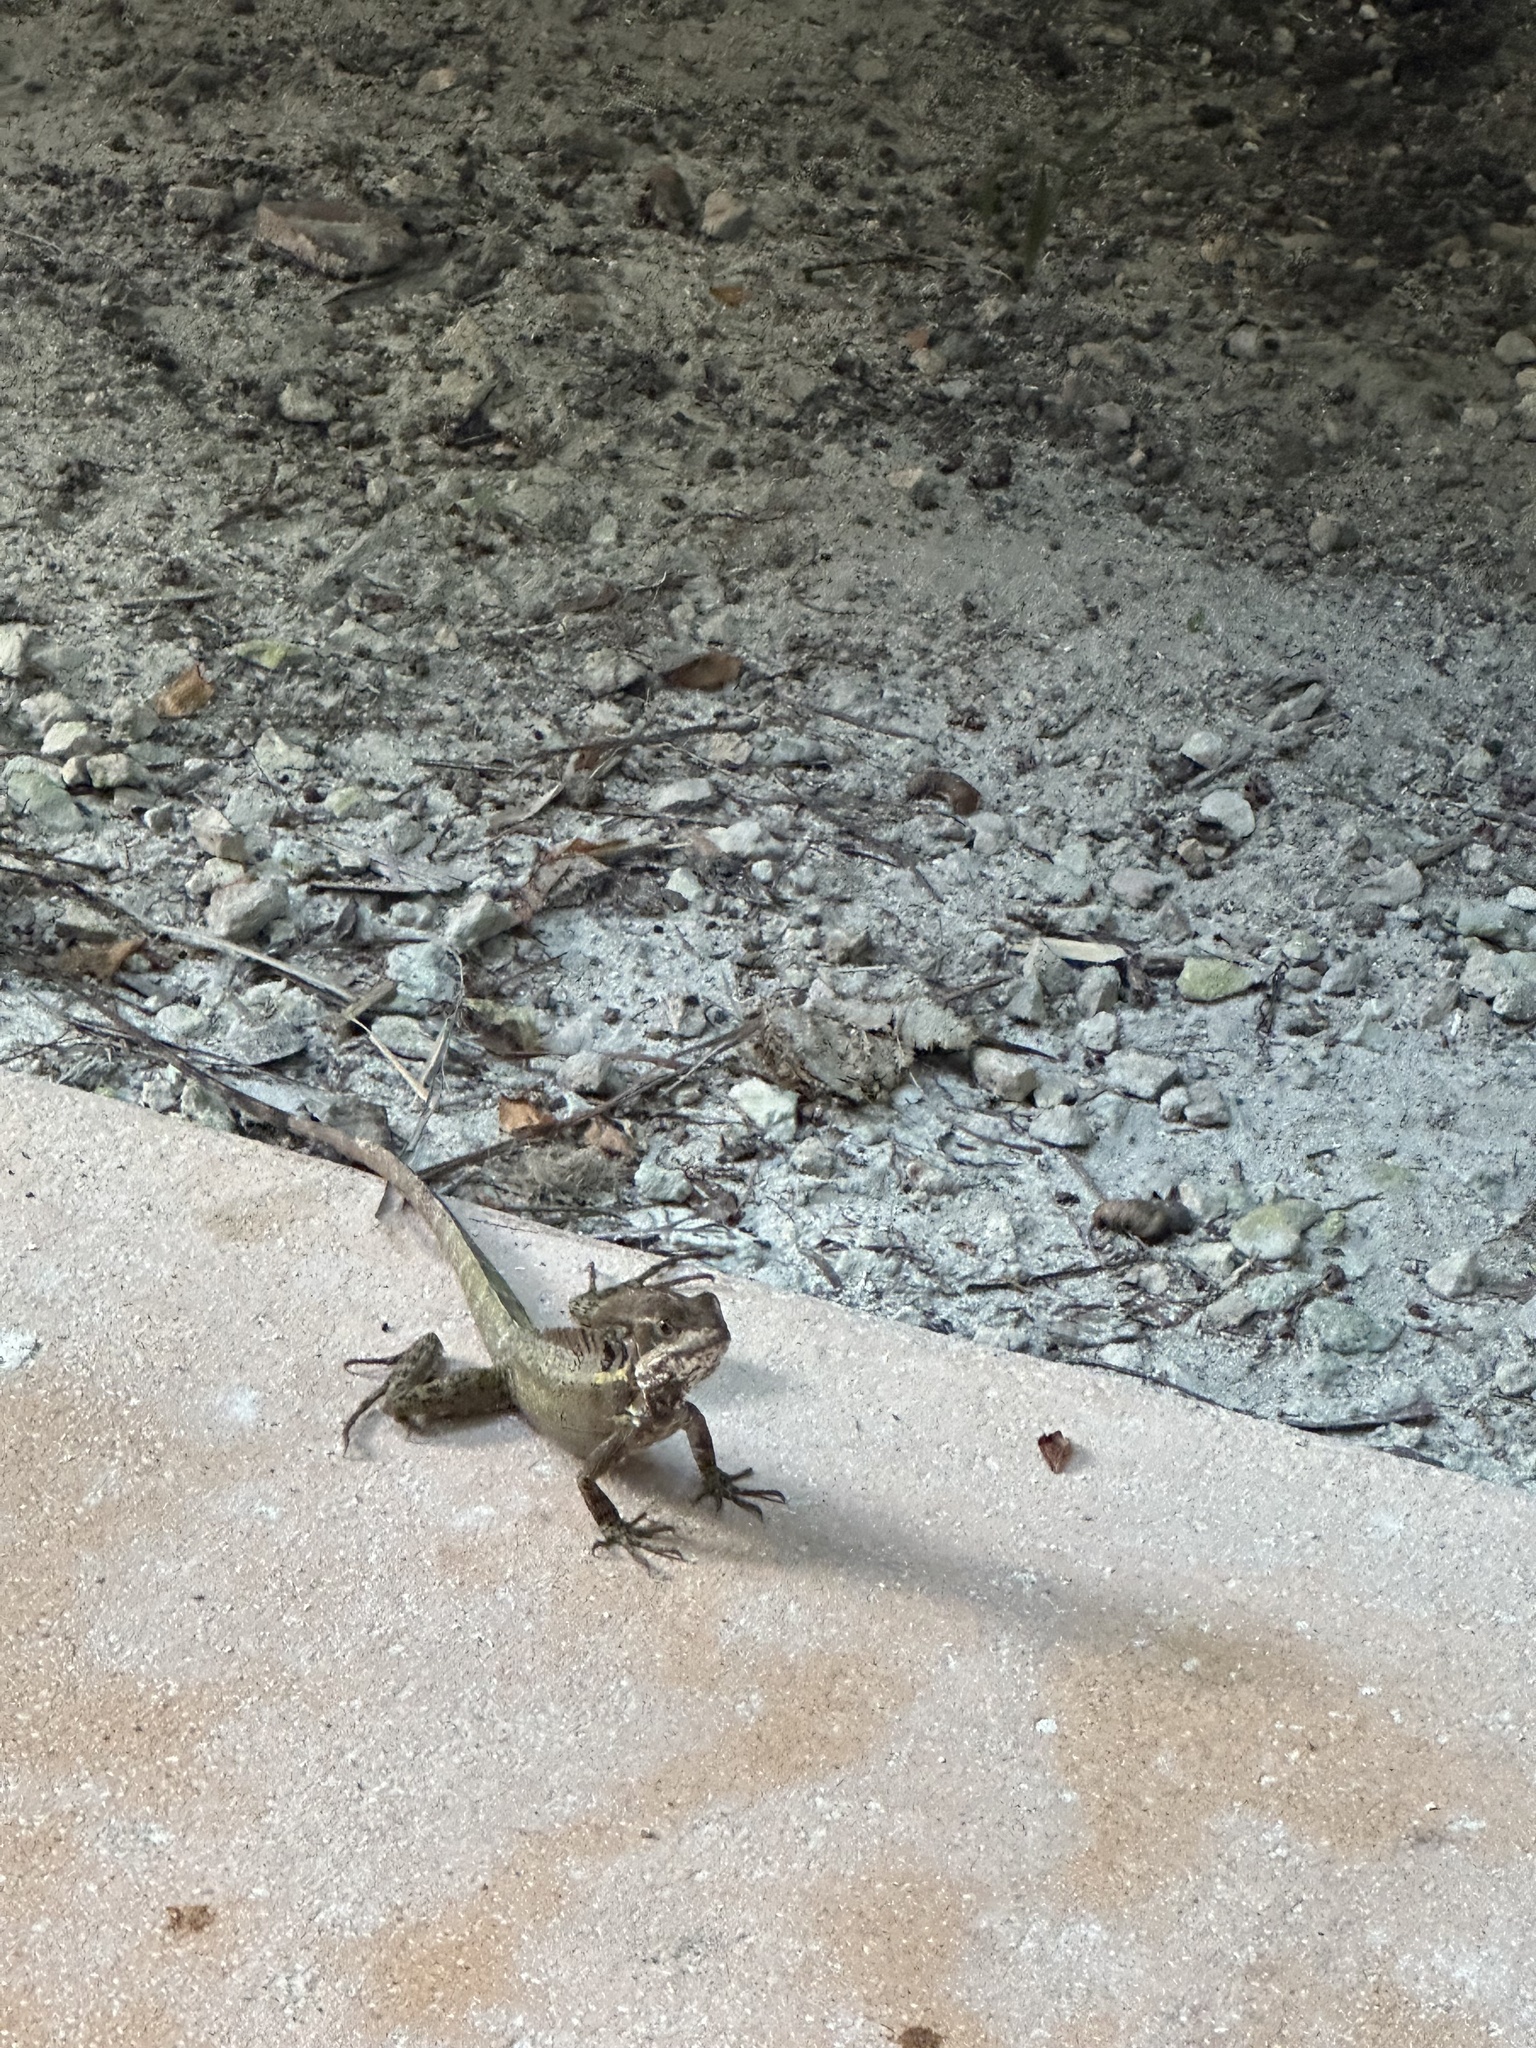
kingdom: Animalia
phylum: Chordata
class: Squamata
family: Corytophanidae
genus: Basiliscus
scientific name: Basiliscus vittatus
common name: Brown basilisk
